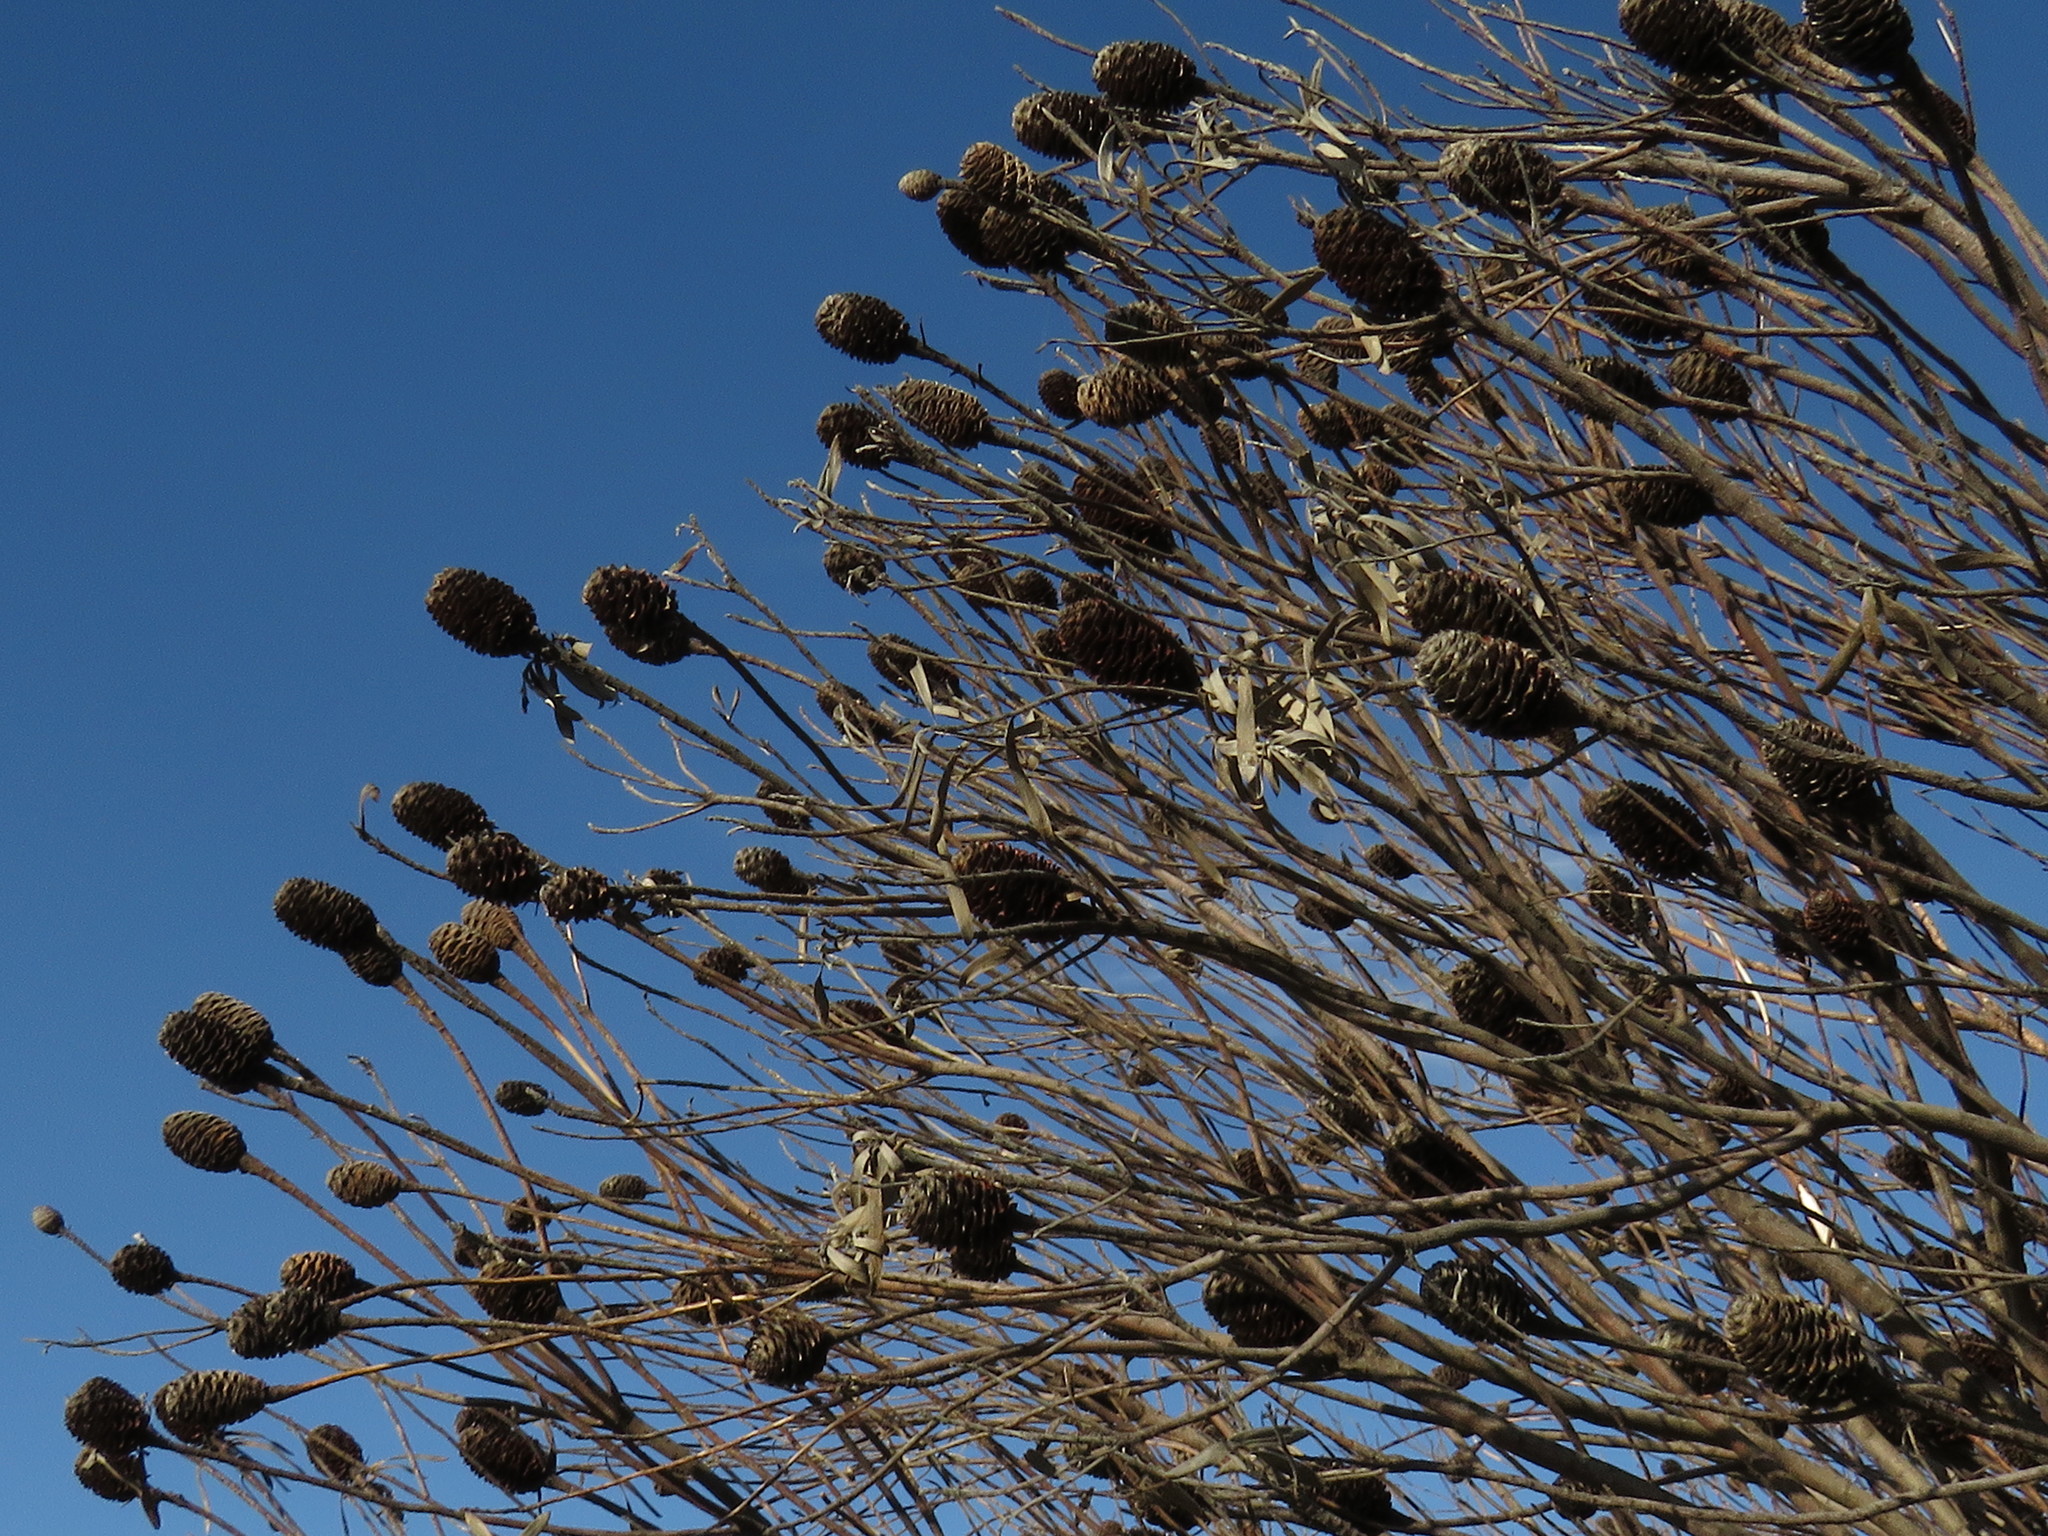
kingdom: Plantae
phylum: Tracheophyta
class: Magnoliopsida
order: Proteales
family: Proteaceae
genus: Leucadendron
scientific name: Leucadendron coniferum
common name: Dune conebush
